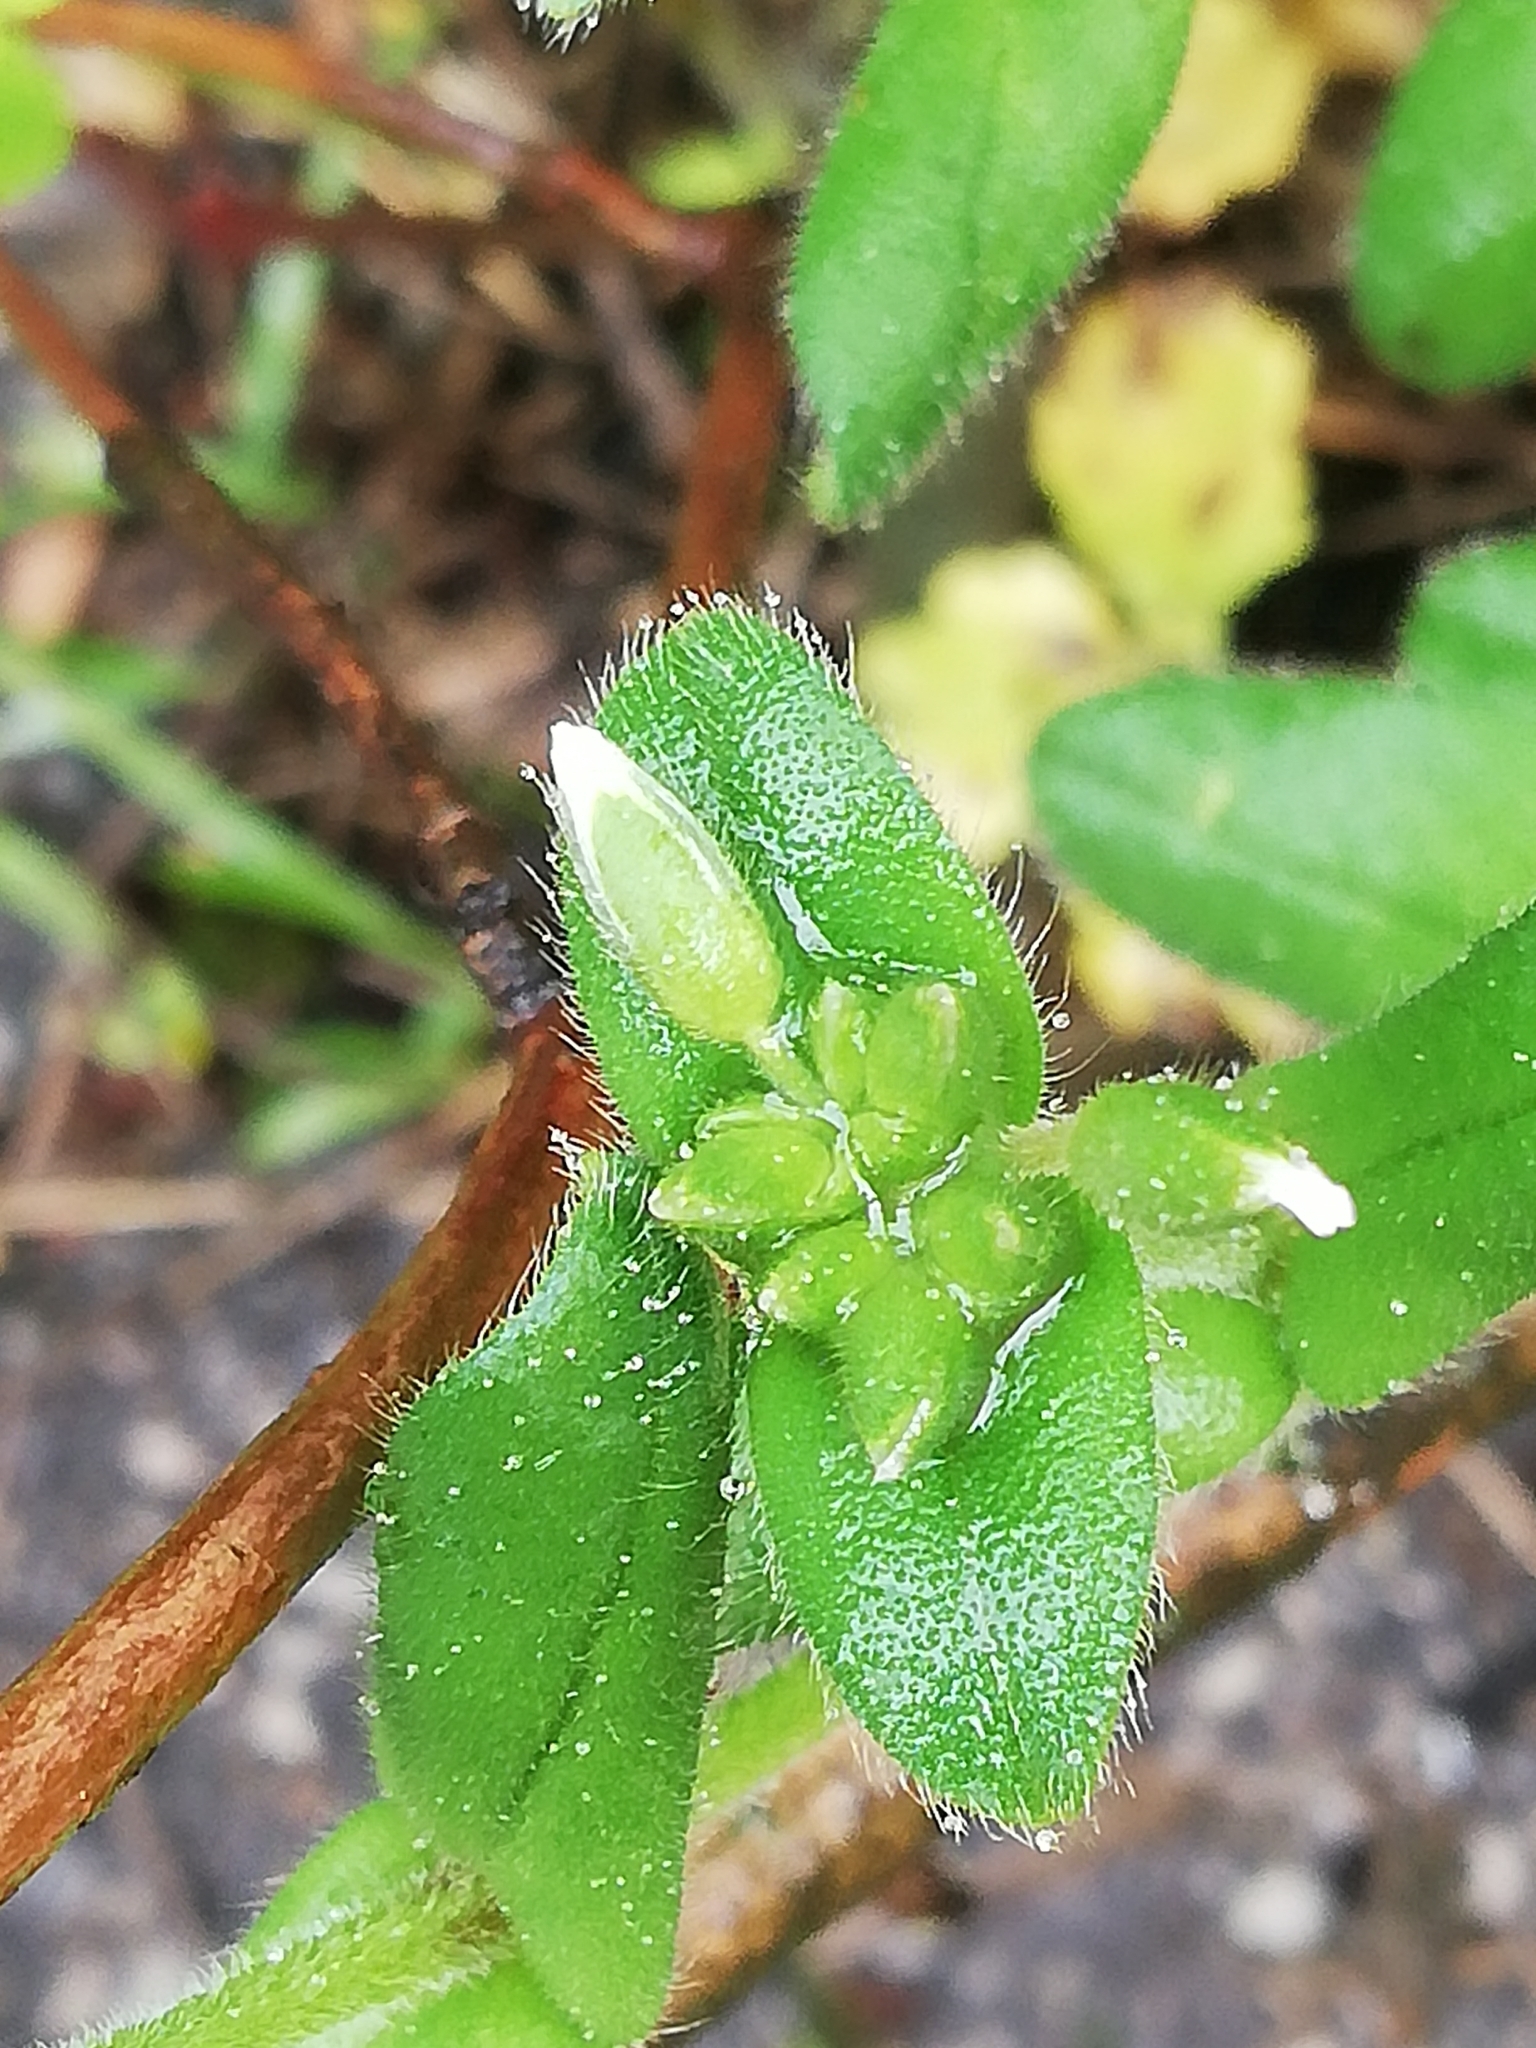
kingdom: Plantae
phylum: Tracheophyta
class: Magnoliopsida
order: Caryophyllales
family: Caryophyllaceae
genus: Cerastium
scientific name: Cerastium holosteoides
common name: Big chickweed
